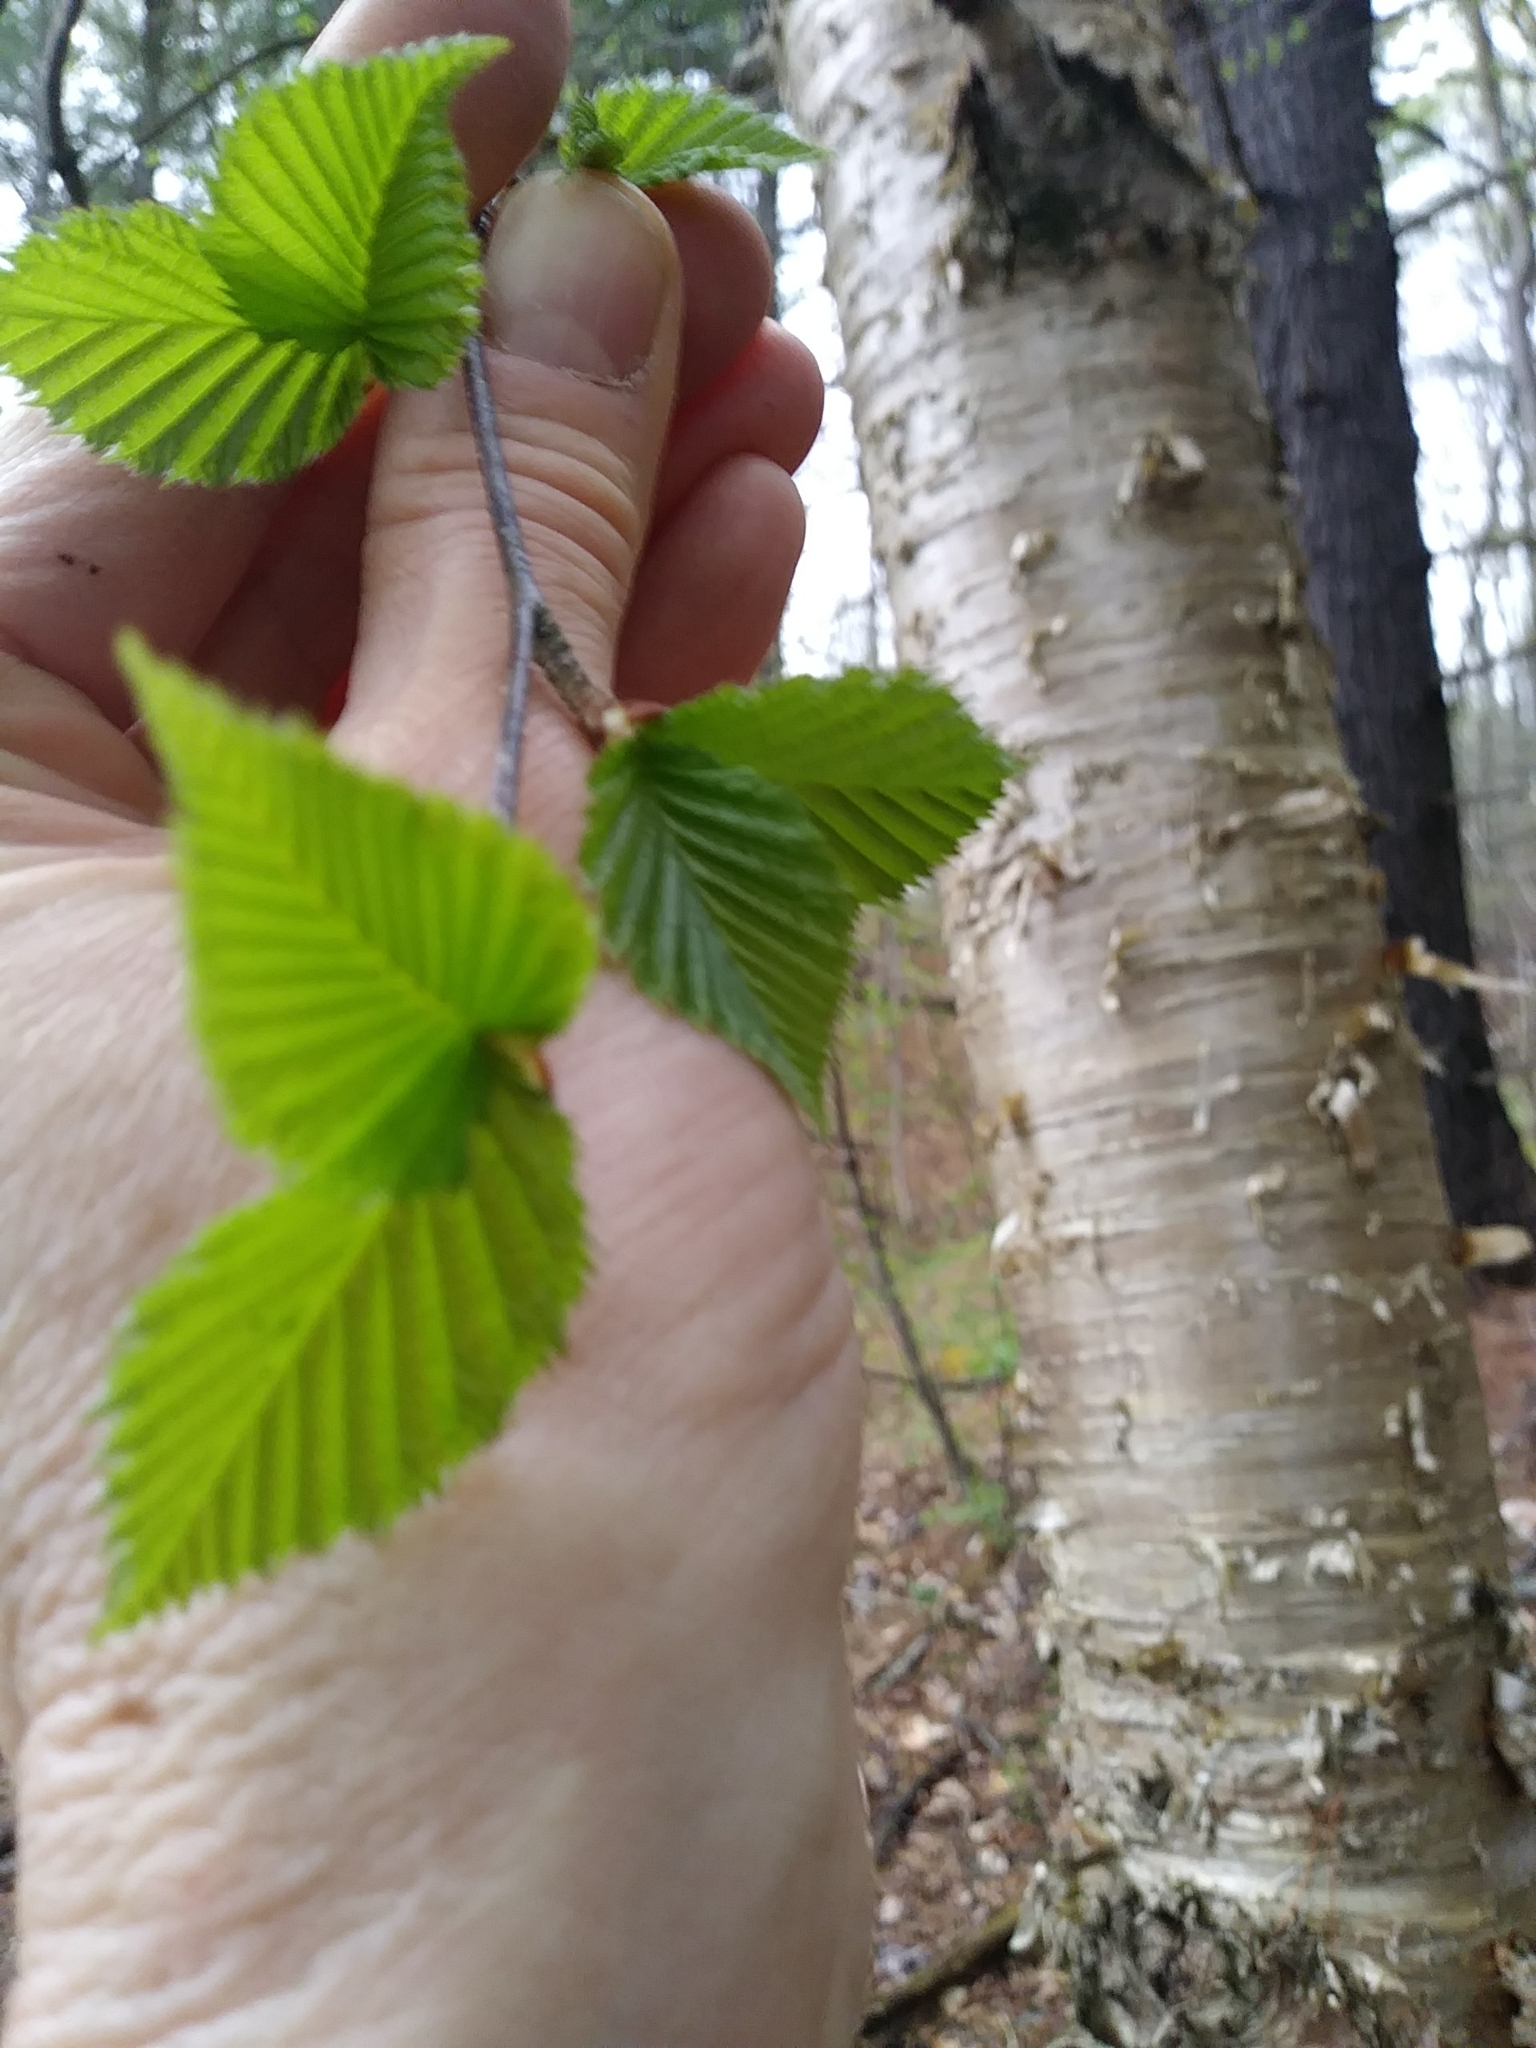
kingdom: Plantae
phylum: Tracheophyta
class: Magnoliopsida
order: Fagales
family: Betulaceae
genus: Betula
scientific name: Betula alleghaniensis
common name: Yellow birch
